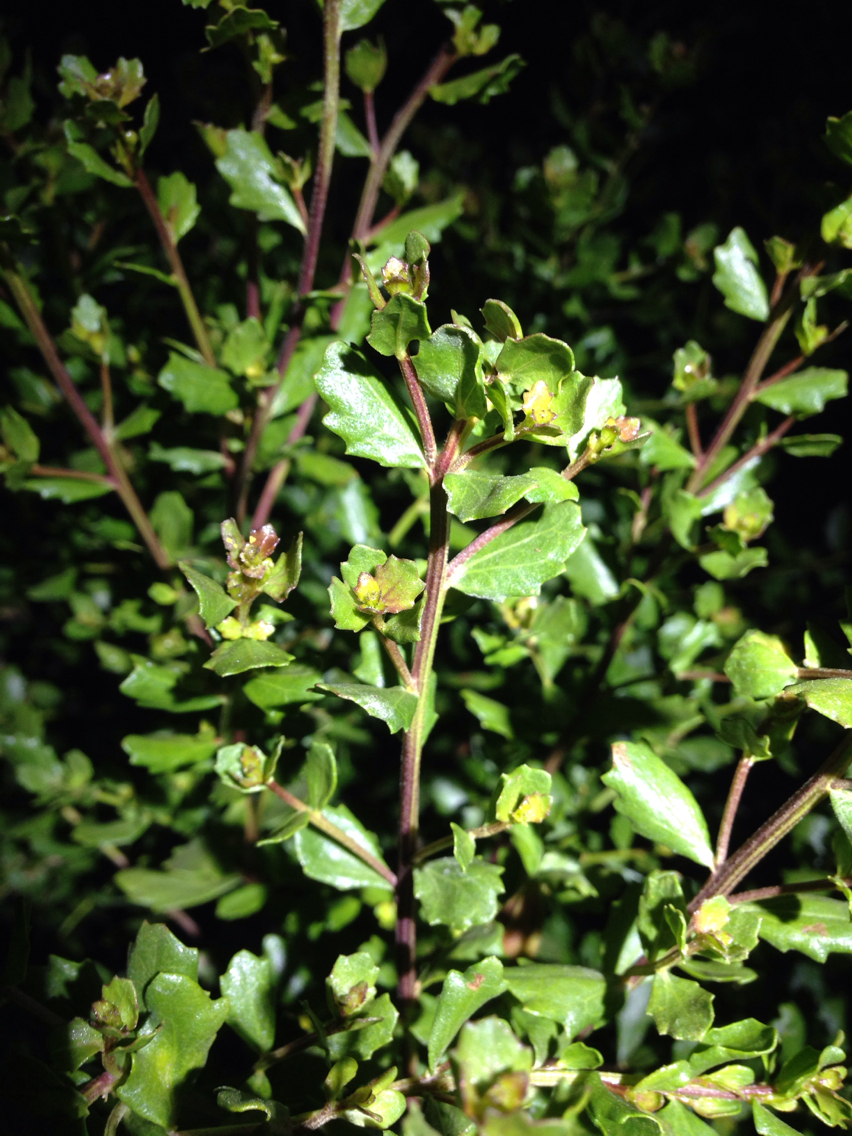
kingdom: Plantae
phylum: Tracheophyta
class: Magnoliopsida
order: Asterales
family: Asteraceae
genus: Baccharis
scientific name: Baccharis pilularis
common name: Coyotebrush
